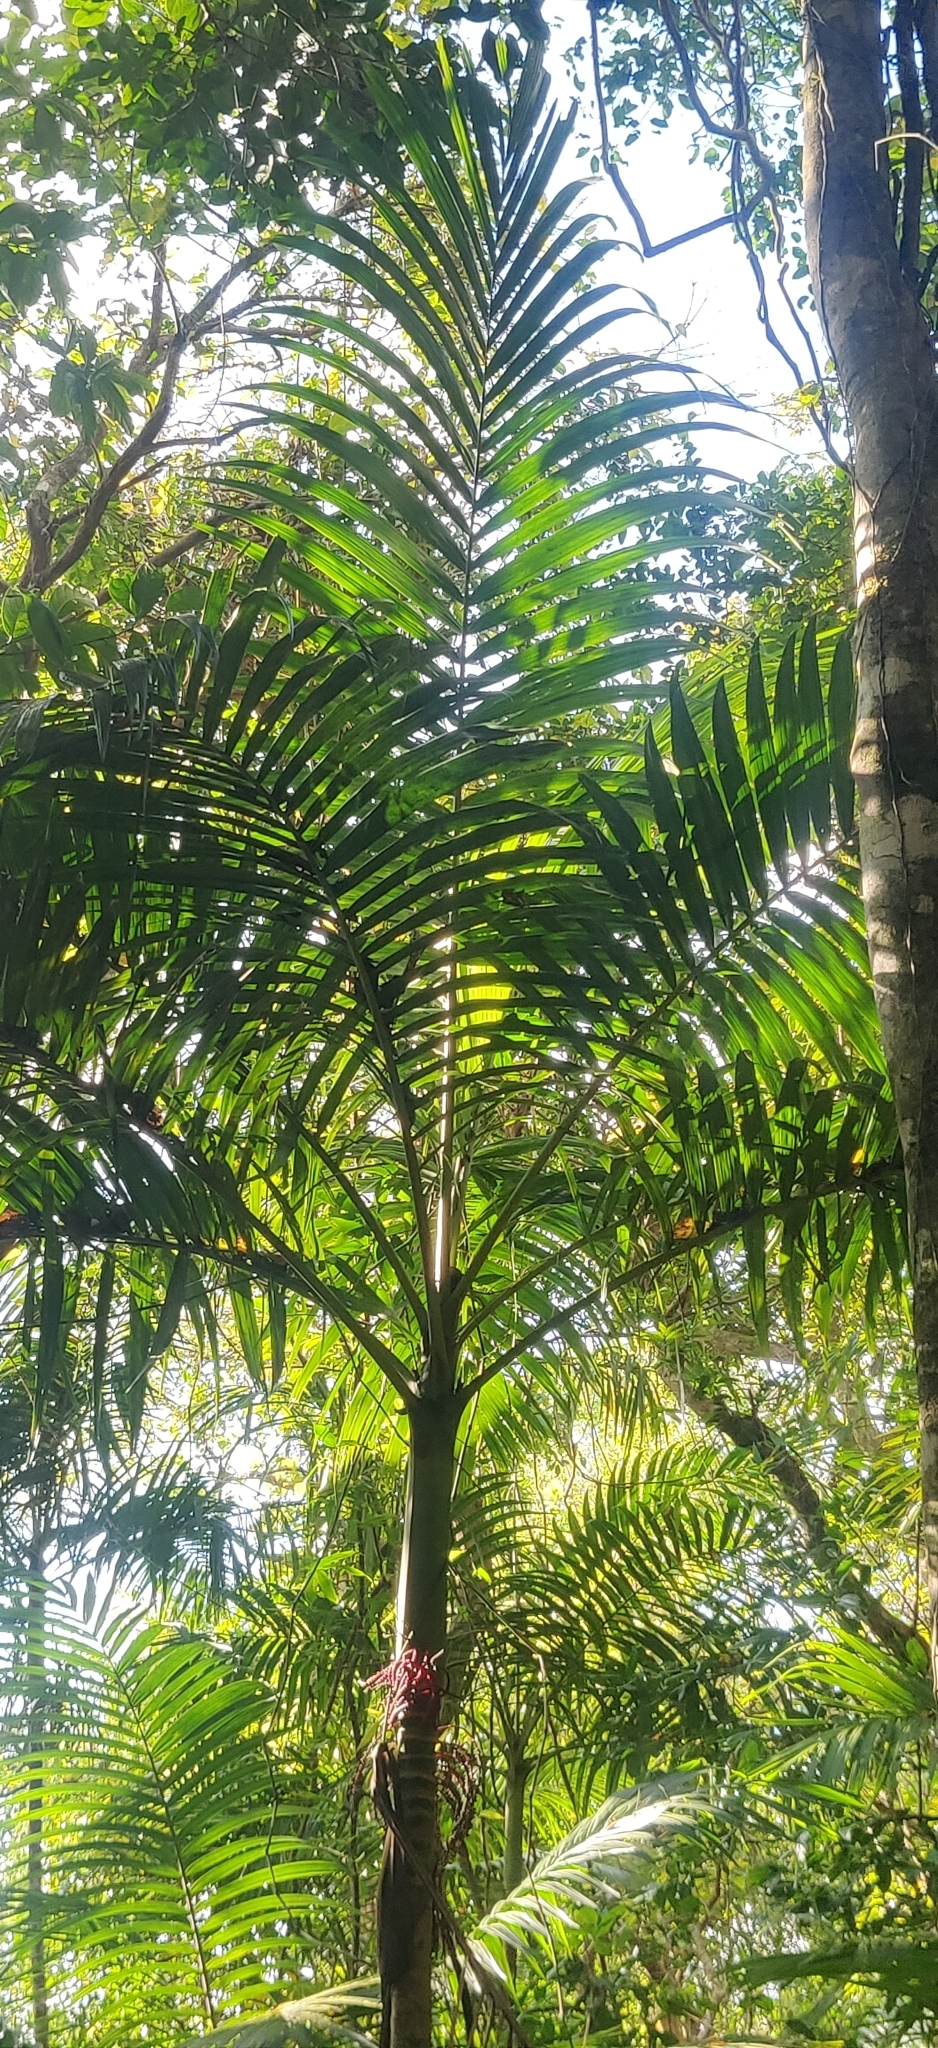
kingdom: Plantae
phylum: Tracheophyta
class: Liliopsida
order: Arecales
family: Arecaceae
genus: Pinanga
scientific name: Pinanga andamanensis
